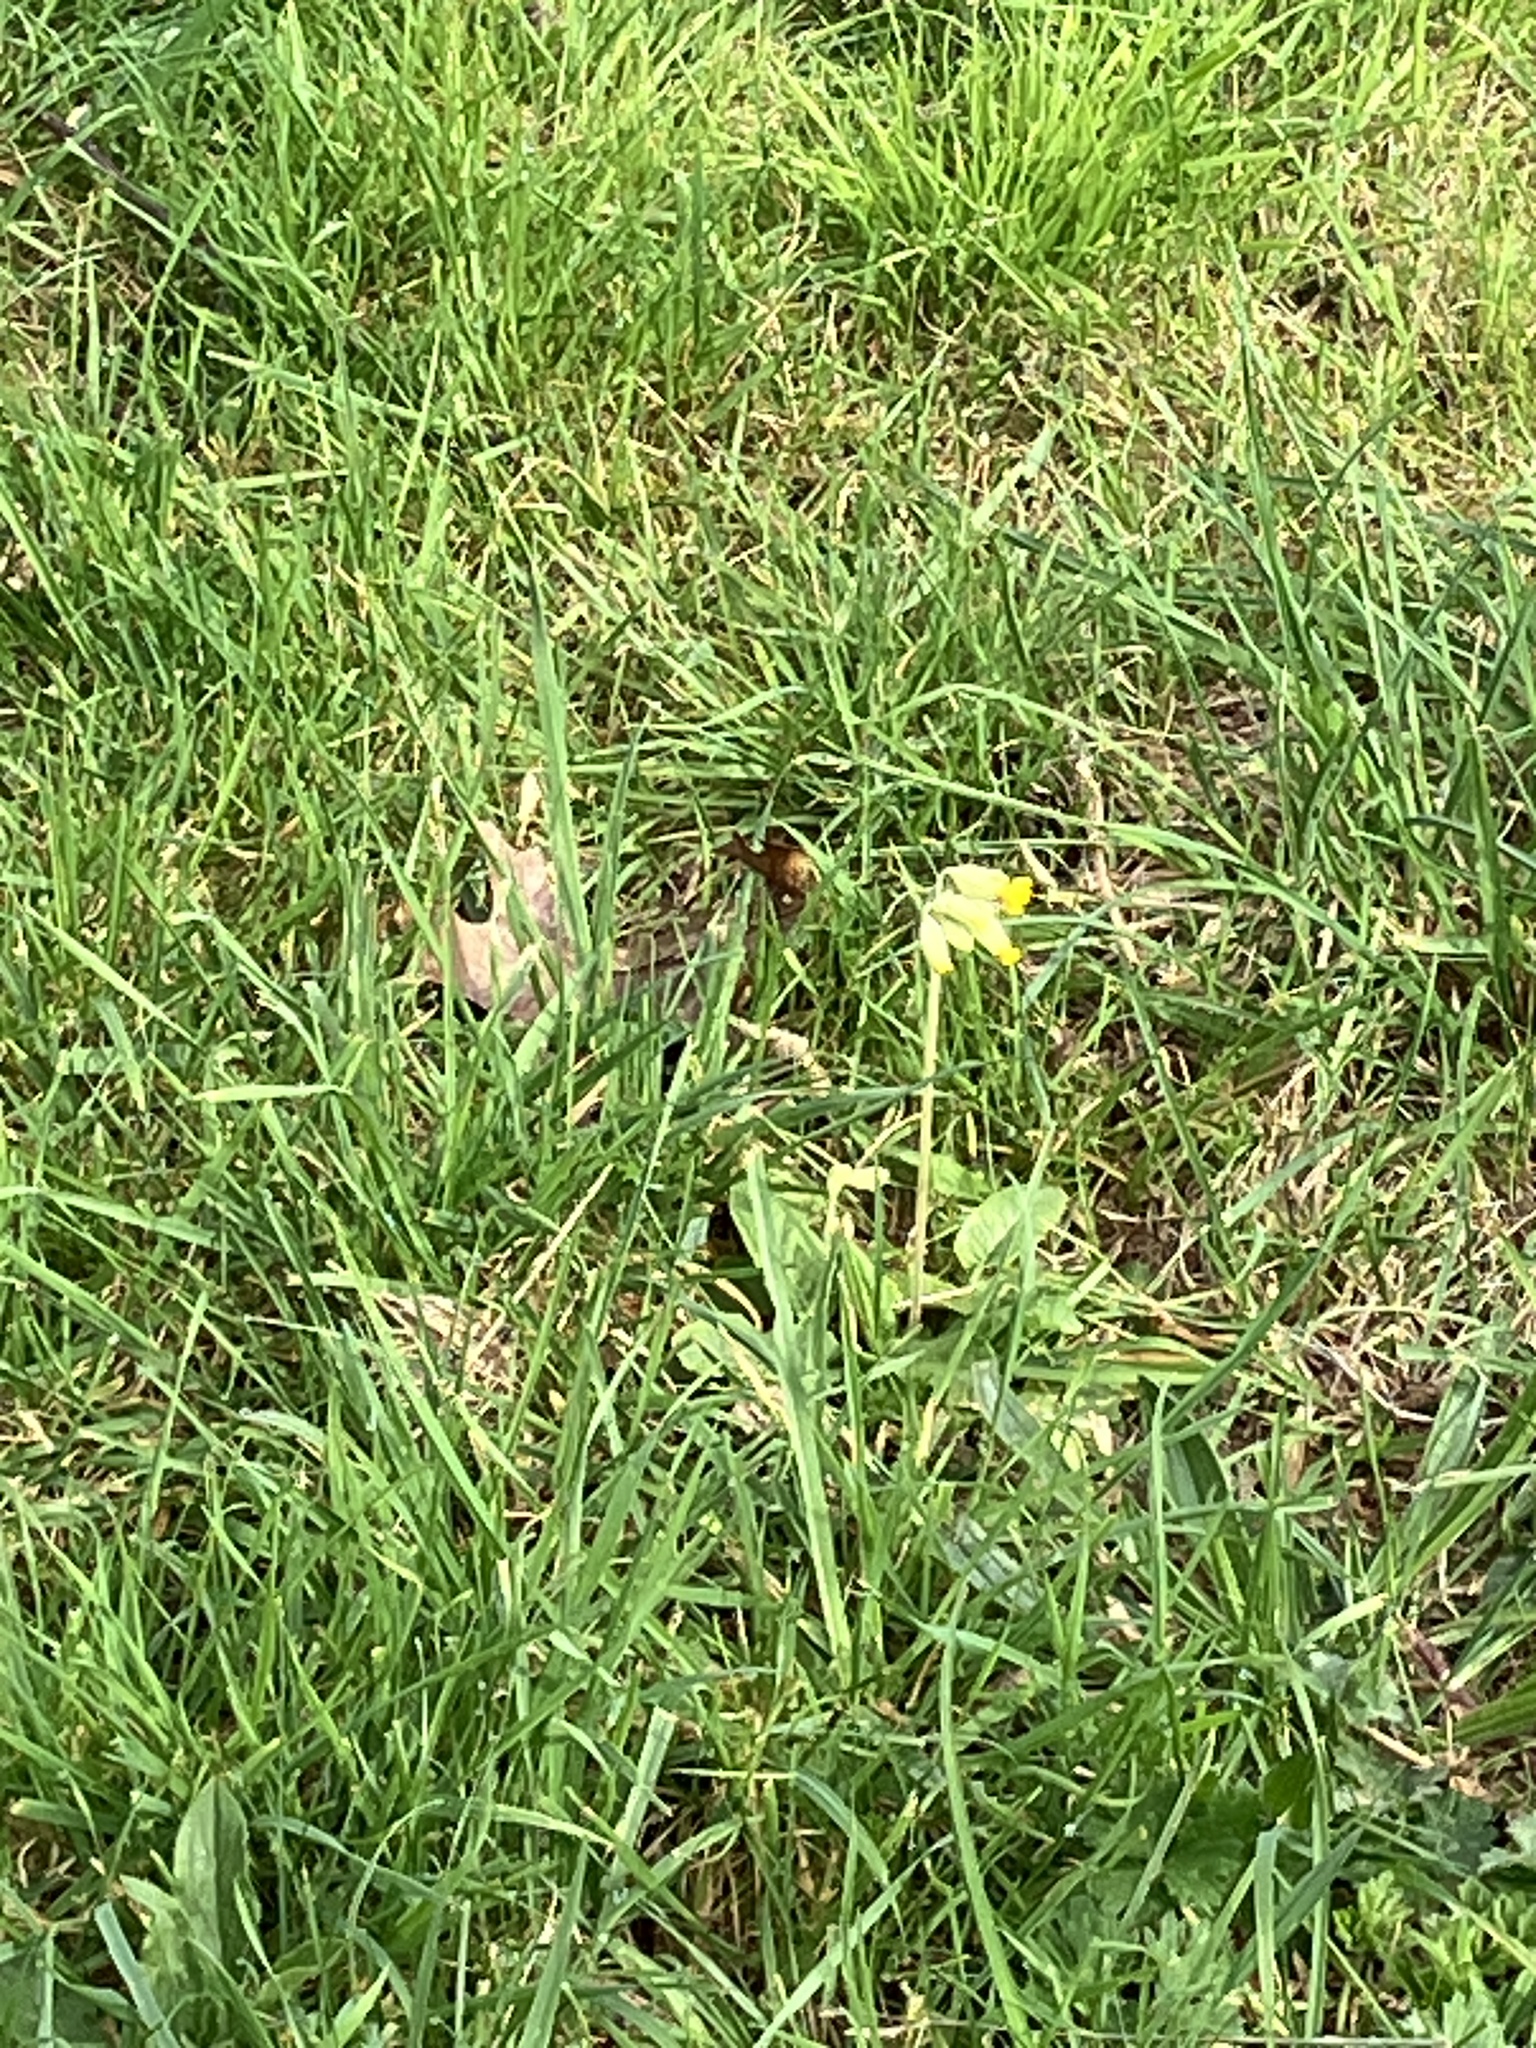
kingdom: Plantae
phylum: Tracheophyta
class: Magnoliopsida
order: Ericales
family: Primulaceae
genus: Primula
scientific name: Primula veris
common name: Cowslip
